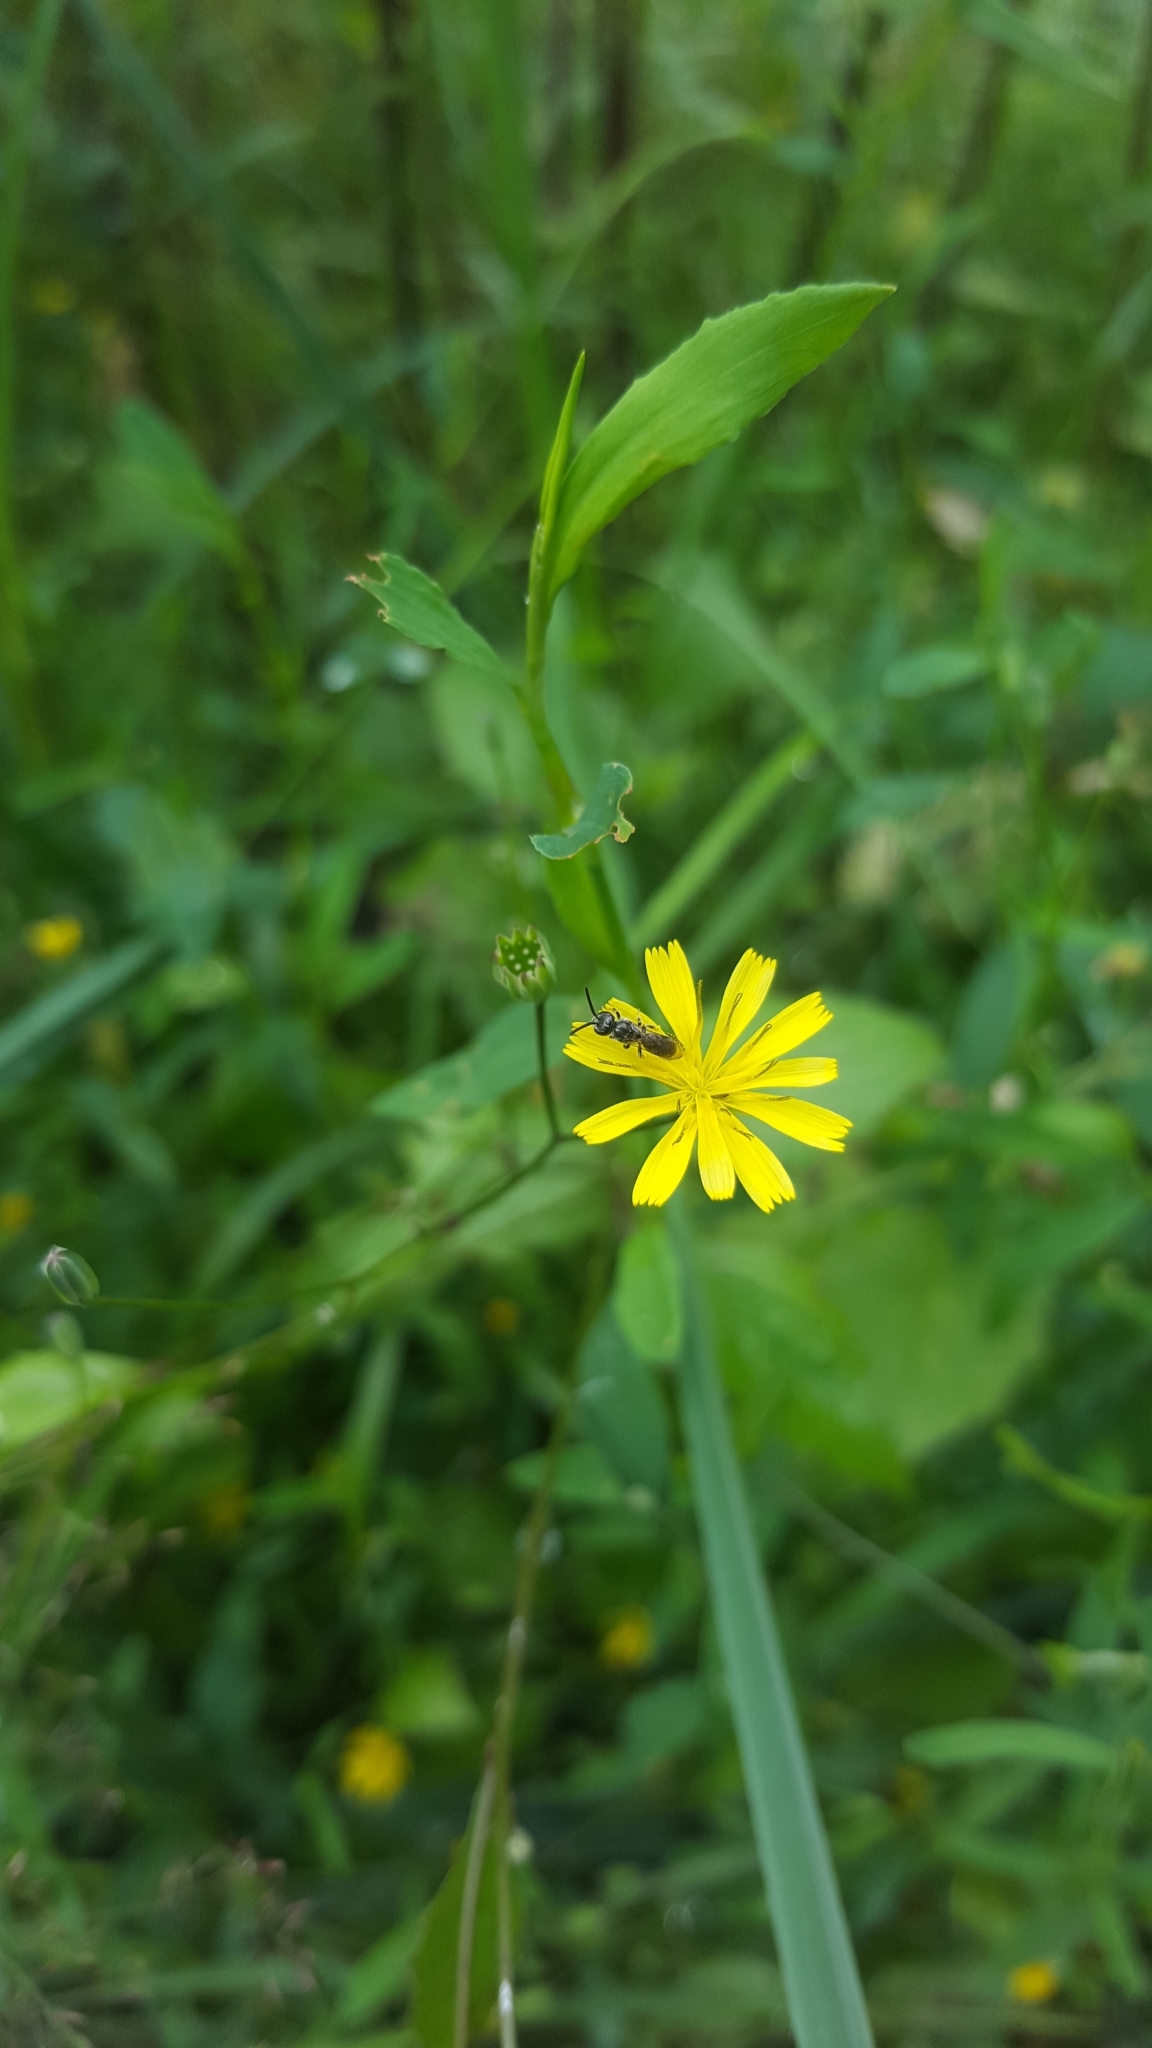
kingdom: Plantae
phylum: Tracheophyta
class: Magnoliopsida
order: Asterales
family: Asteraceae
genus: Lapsana
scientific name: Lapsana communis
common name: Nipplewort
